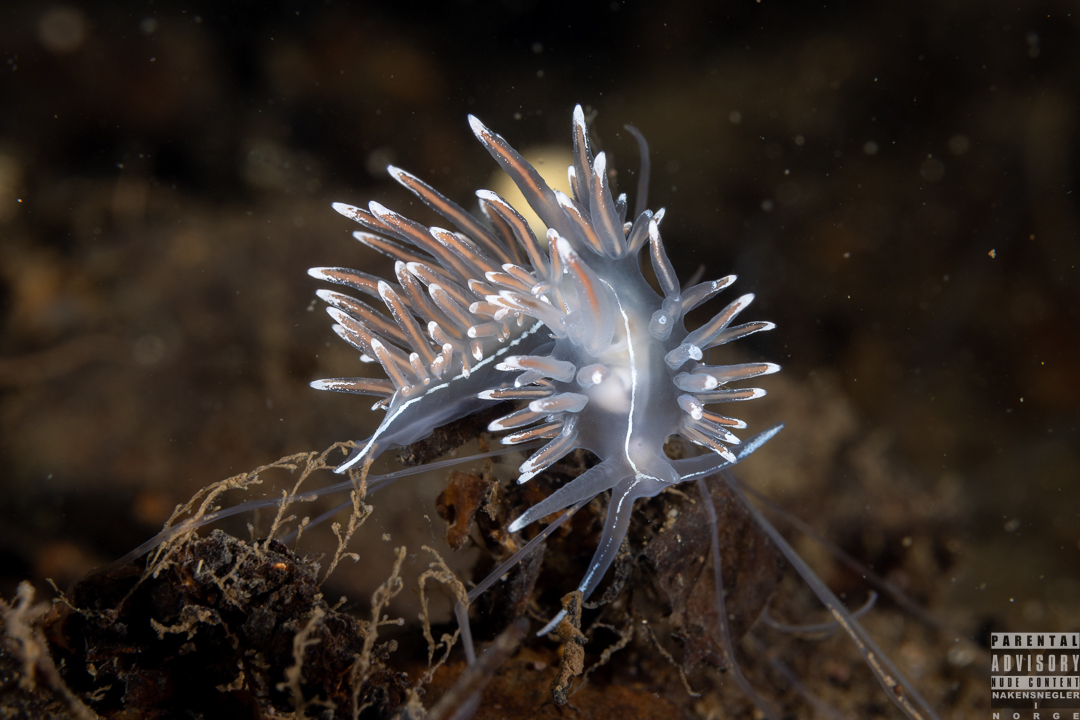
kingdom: Animalia
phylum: Mollusca
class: Gastropoda
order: Nudibranchia
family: Coryphellidae
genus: Coryphella
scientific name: Coryphella lineata
